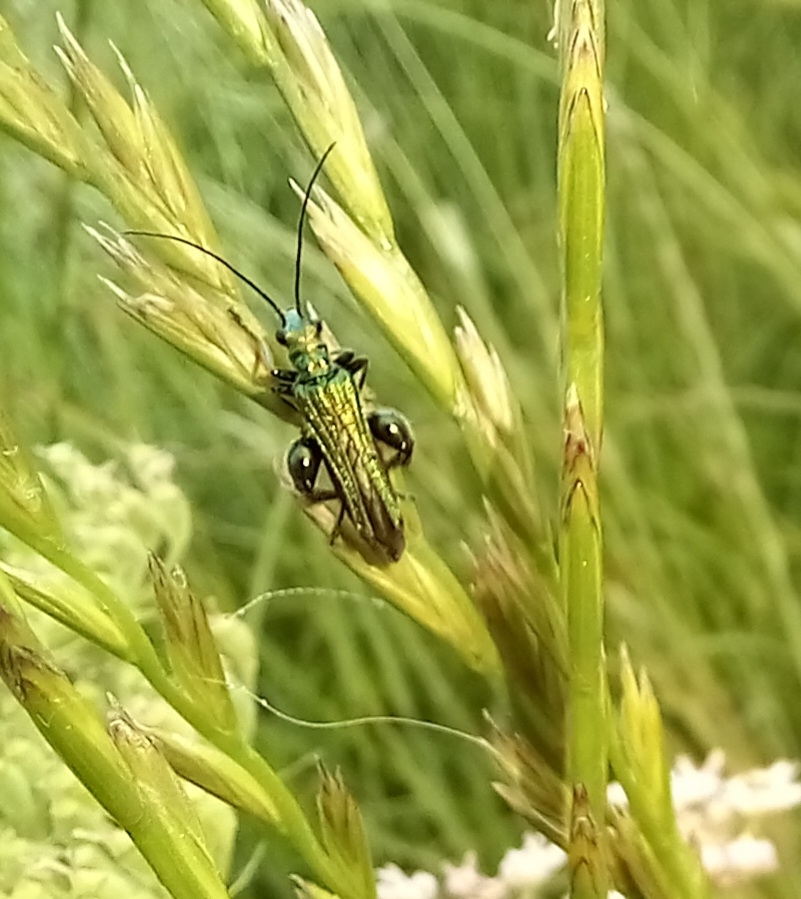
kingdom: Animalia
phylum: Arthropoda
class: Insecta
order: Coleoptera
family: Oedemeridae
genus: Oedemera
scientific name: Oedemera nobilis
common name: Swollen-thighed beetle
